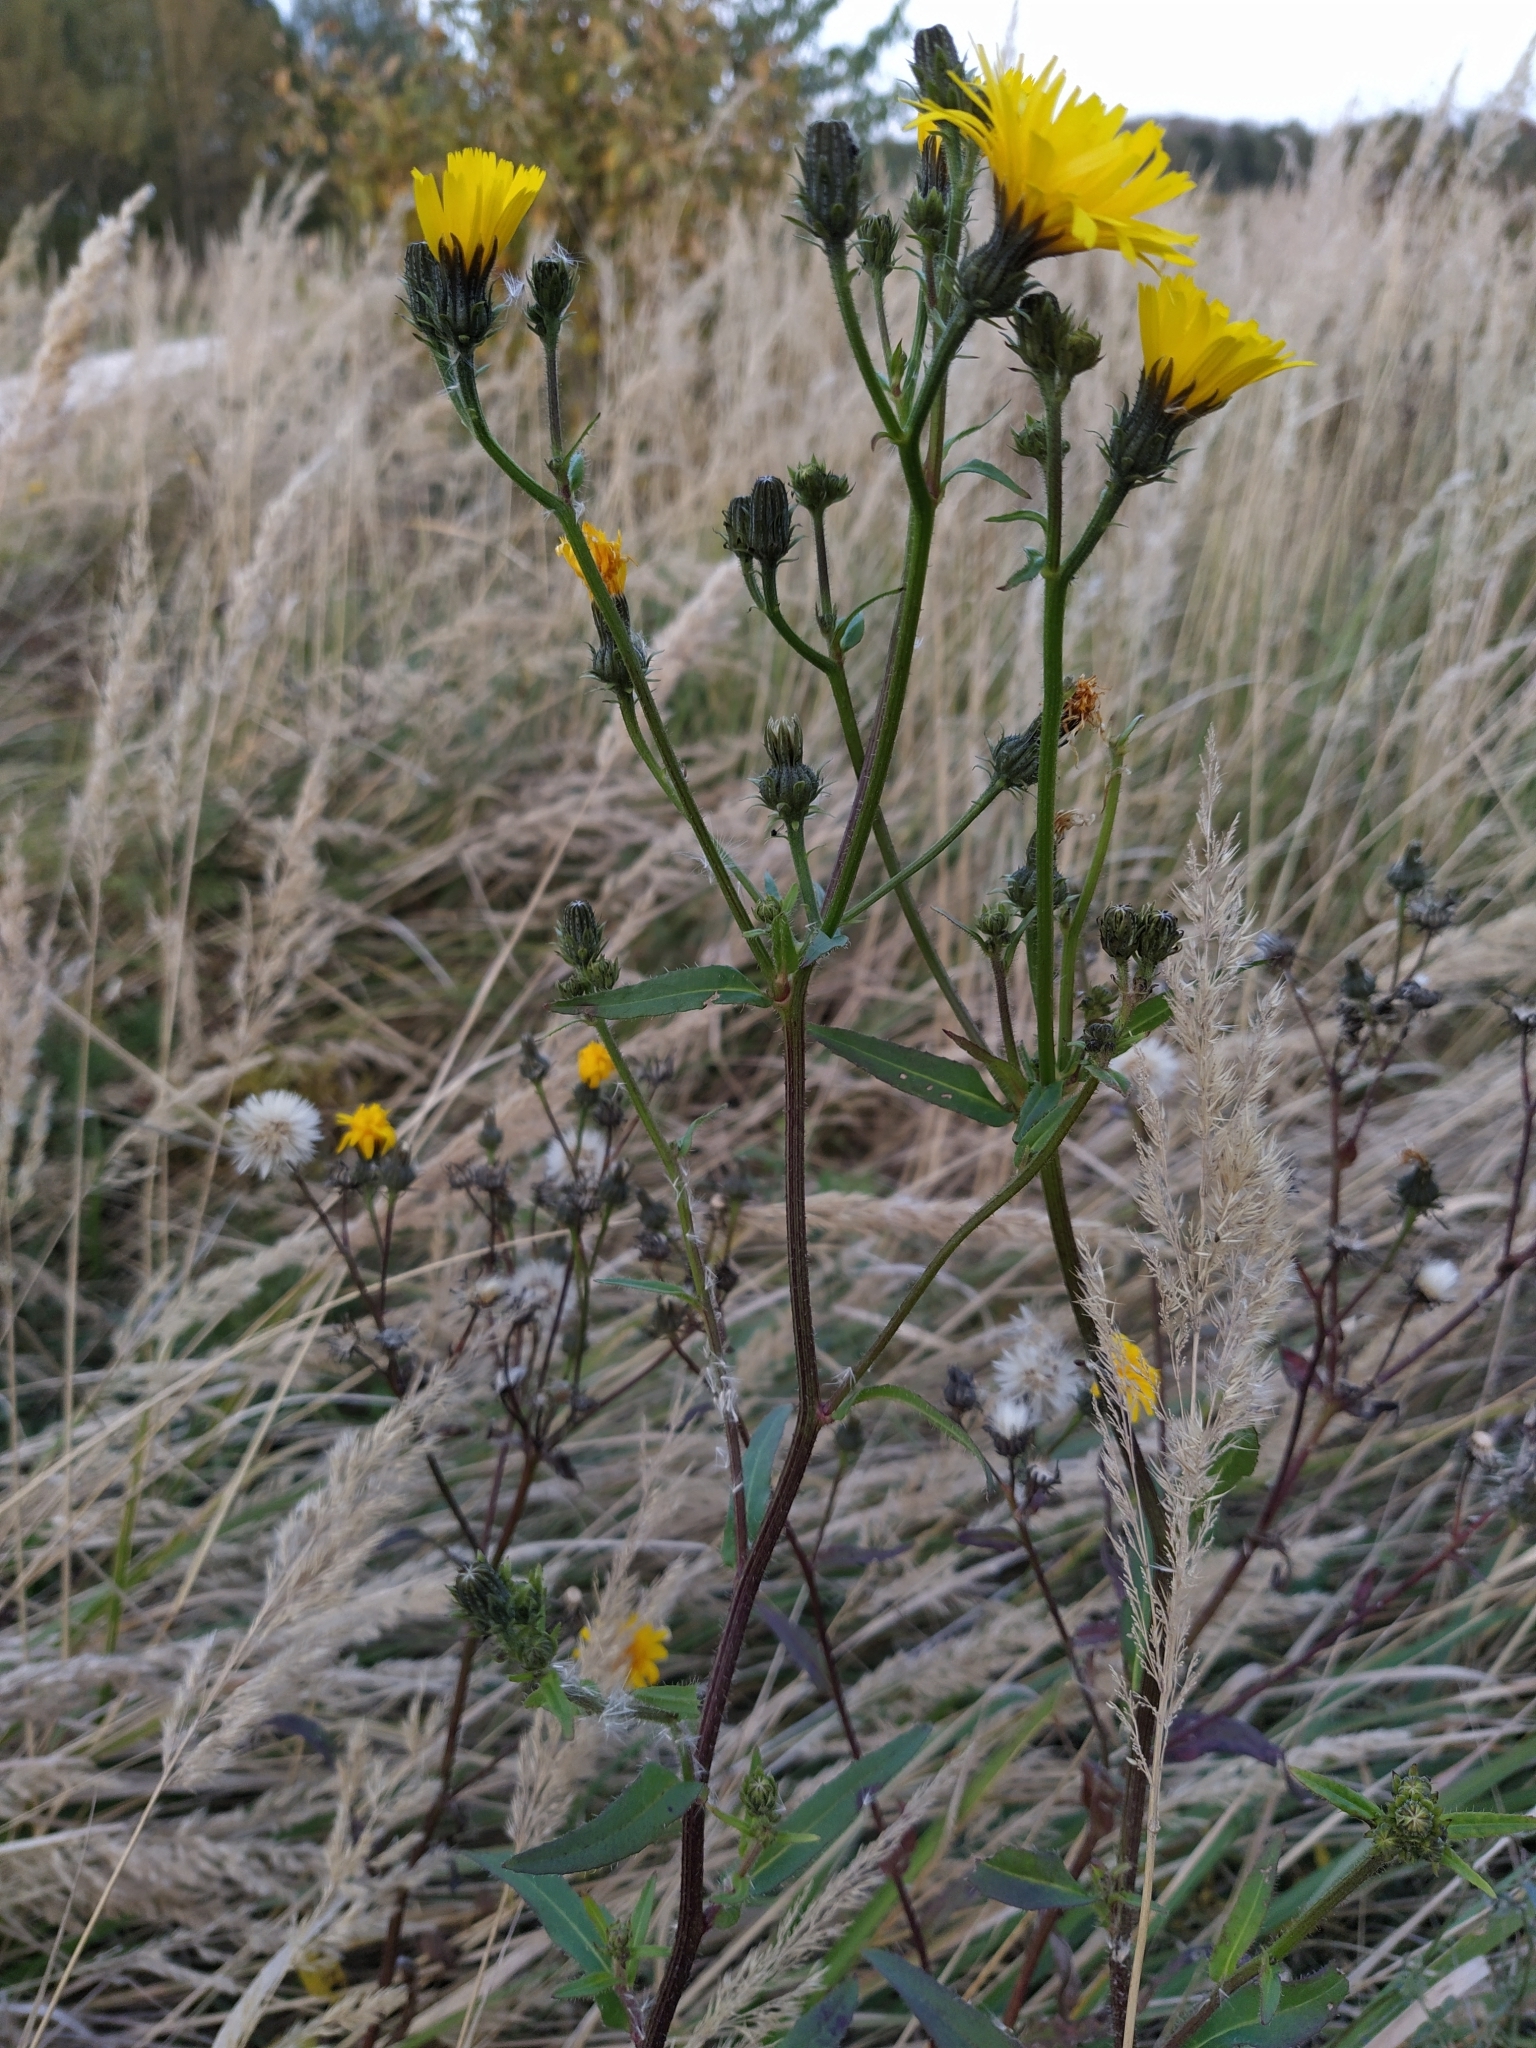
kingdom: Plantae
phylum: Tracheophyta
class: Magnoliopsida
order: Asterales
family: Asteraceae
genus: Picris
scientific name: Picris hieracioides
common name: Hawkweed oxtongue
